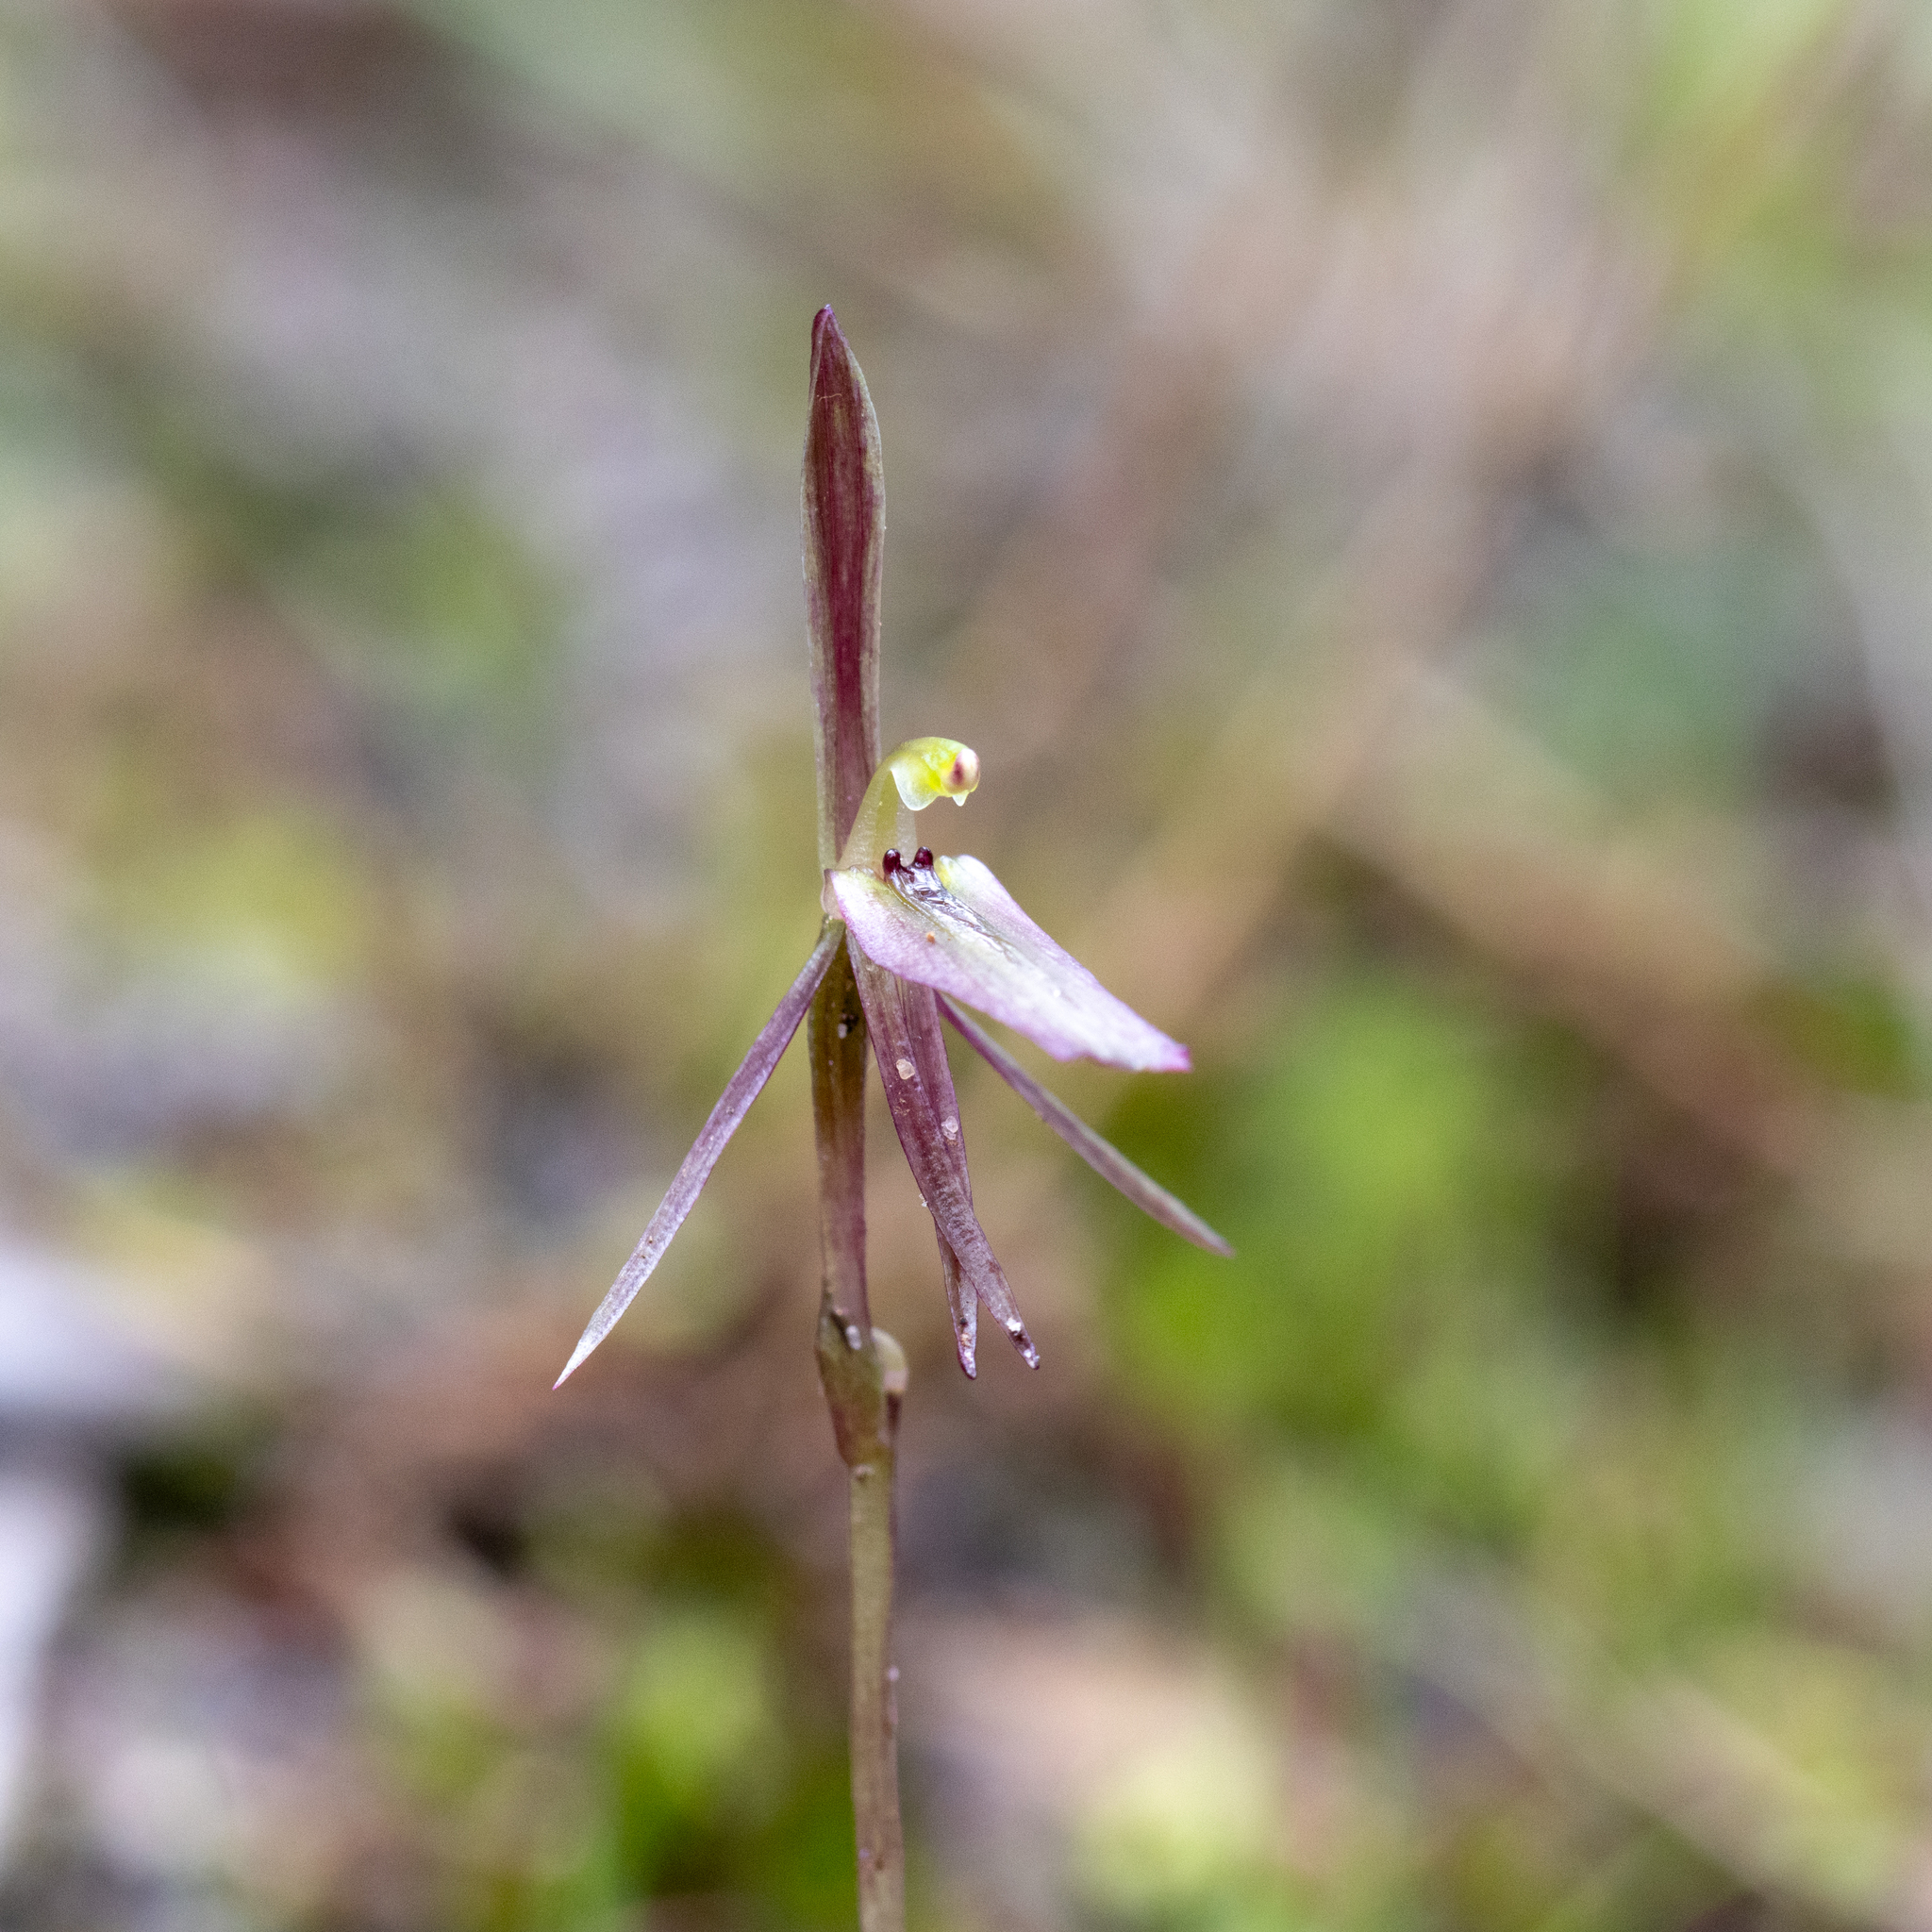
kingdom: Plantae
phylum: Tracheophyta
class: Liliopsida
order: Asparagales
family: Orchidaceae
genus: Cyrtostylis
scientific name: Cyrtostylis reniformis
